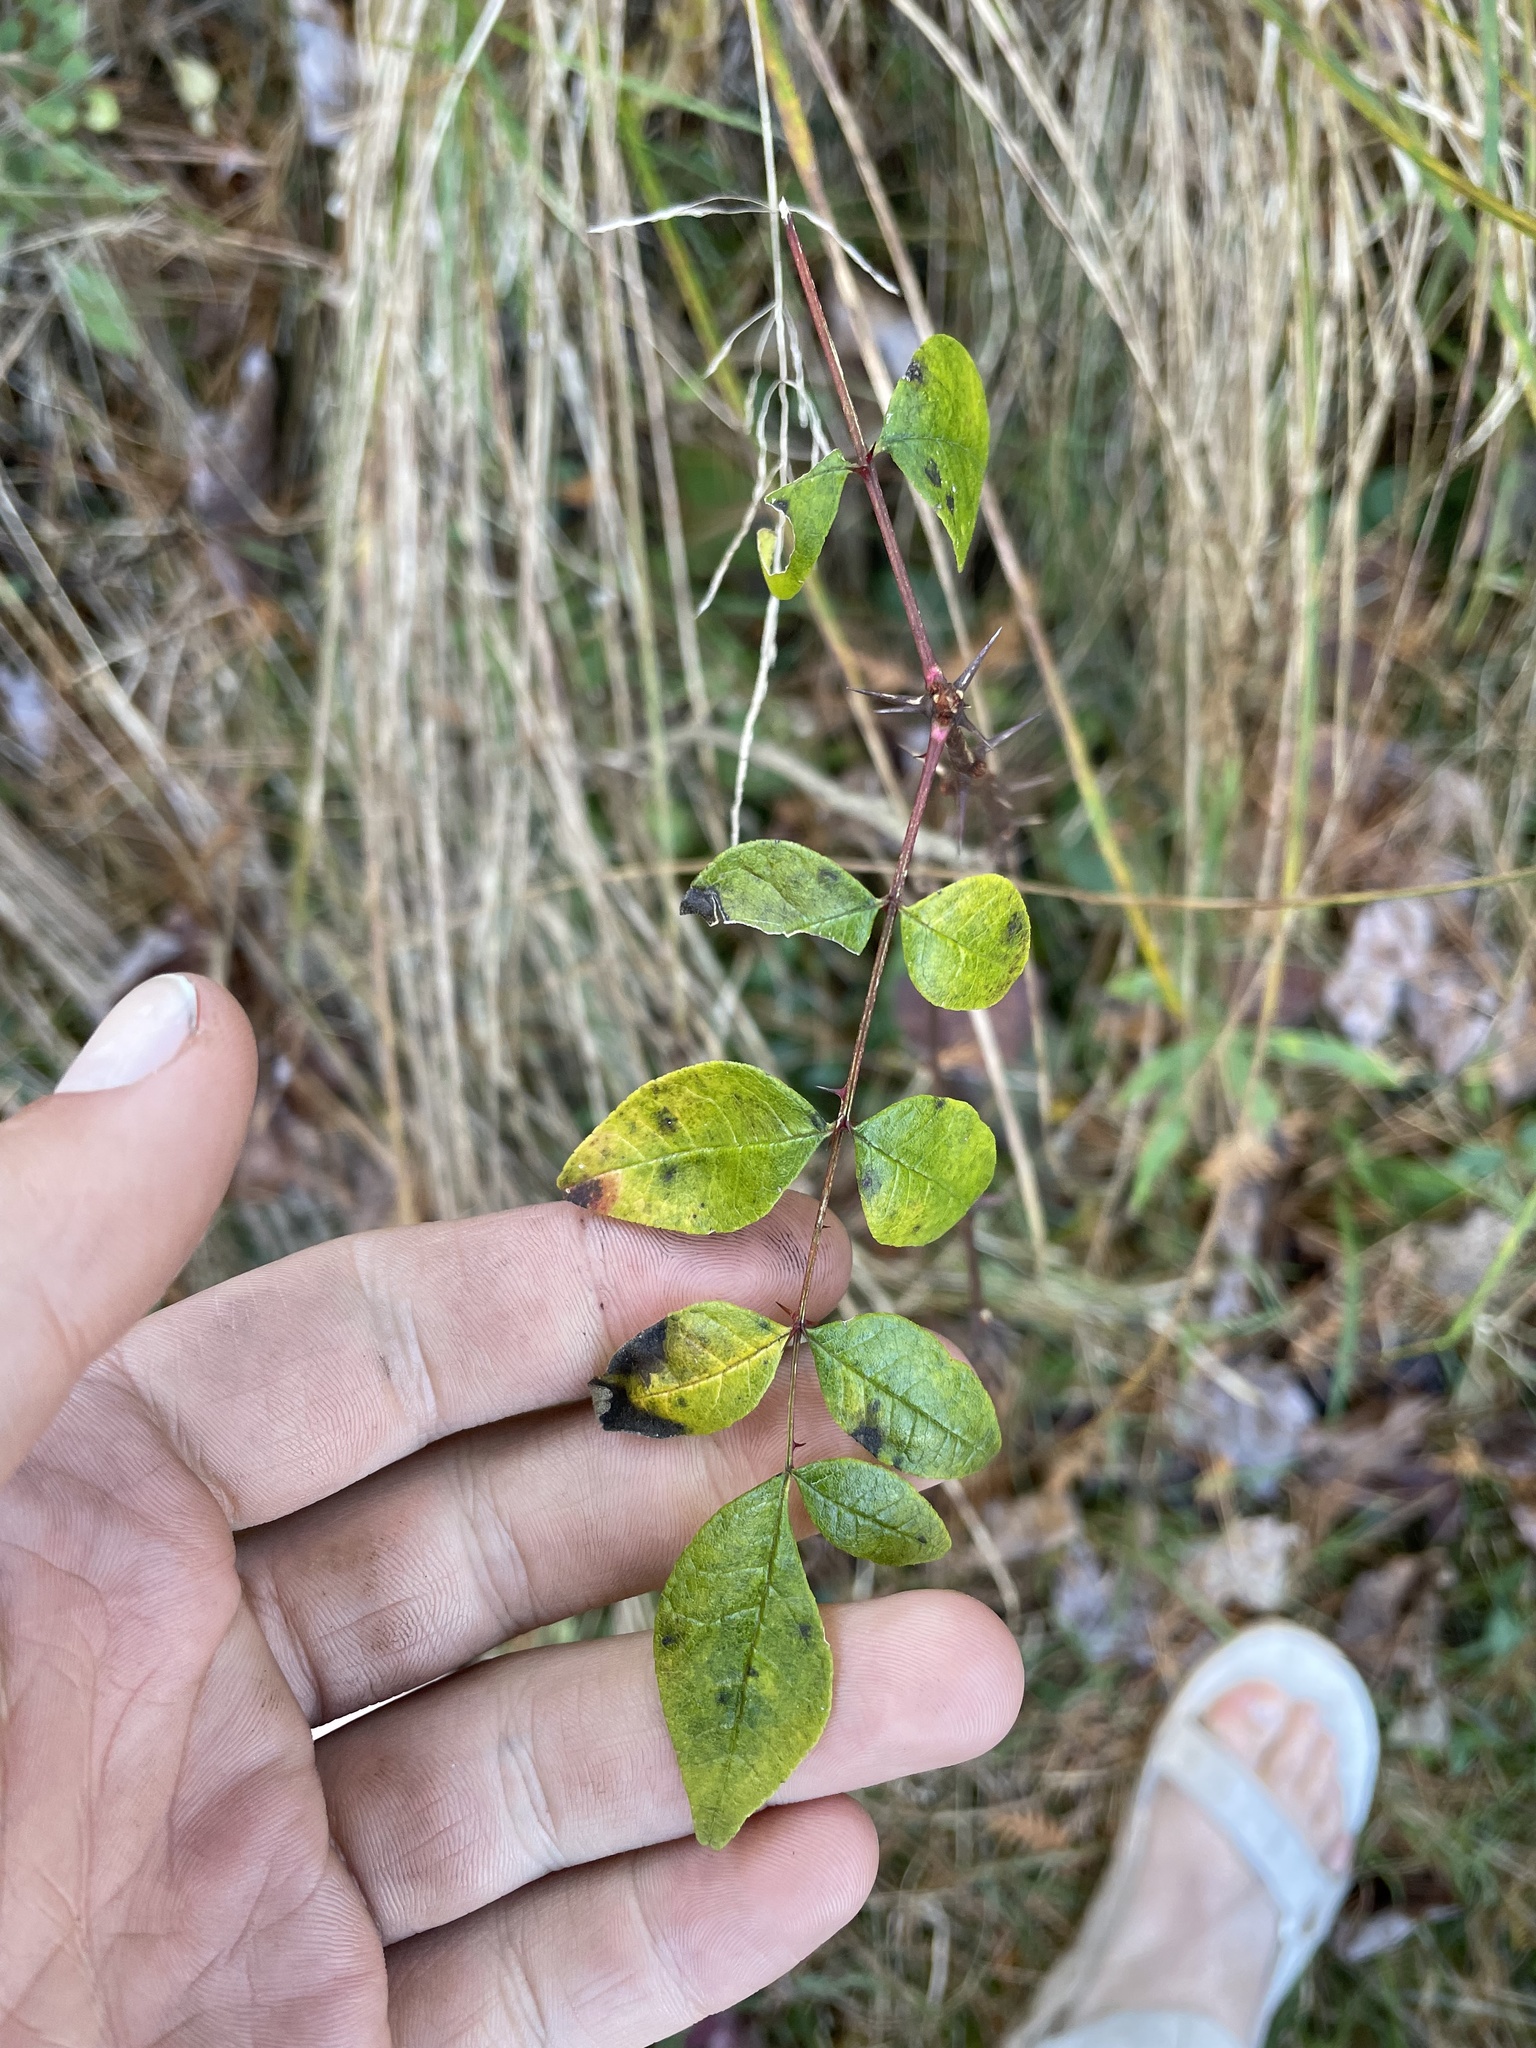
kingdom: Plantae
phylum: Tracheophyta
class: Magnoliopsida
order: Sapindales
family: Rutaceae
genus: Zanthoxylum
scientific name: Zanthoxylum americanum
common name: Northern prickly-ash
